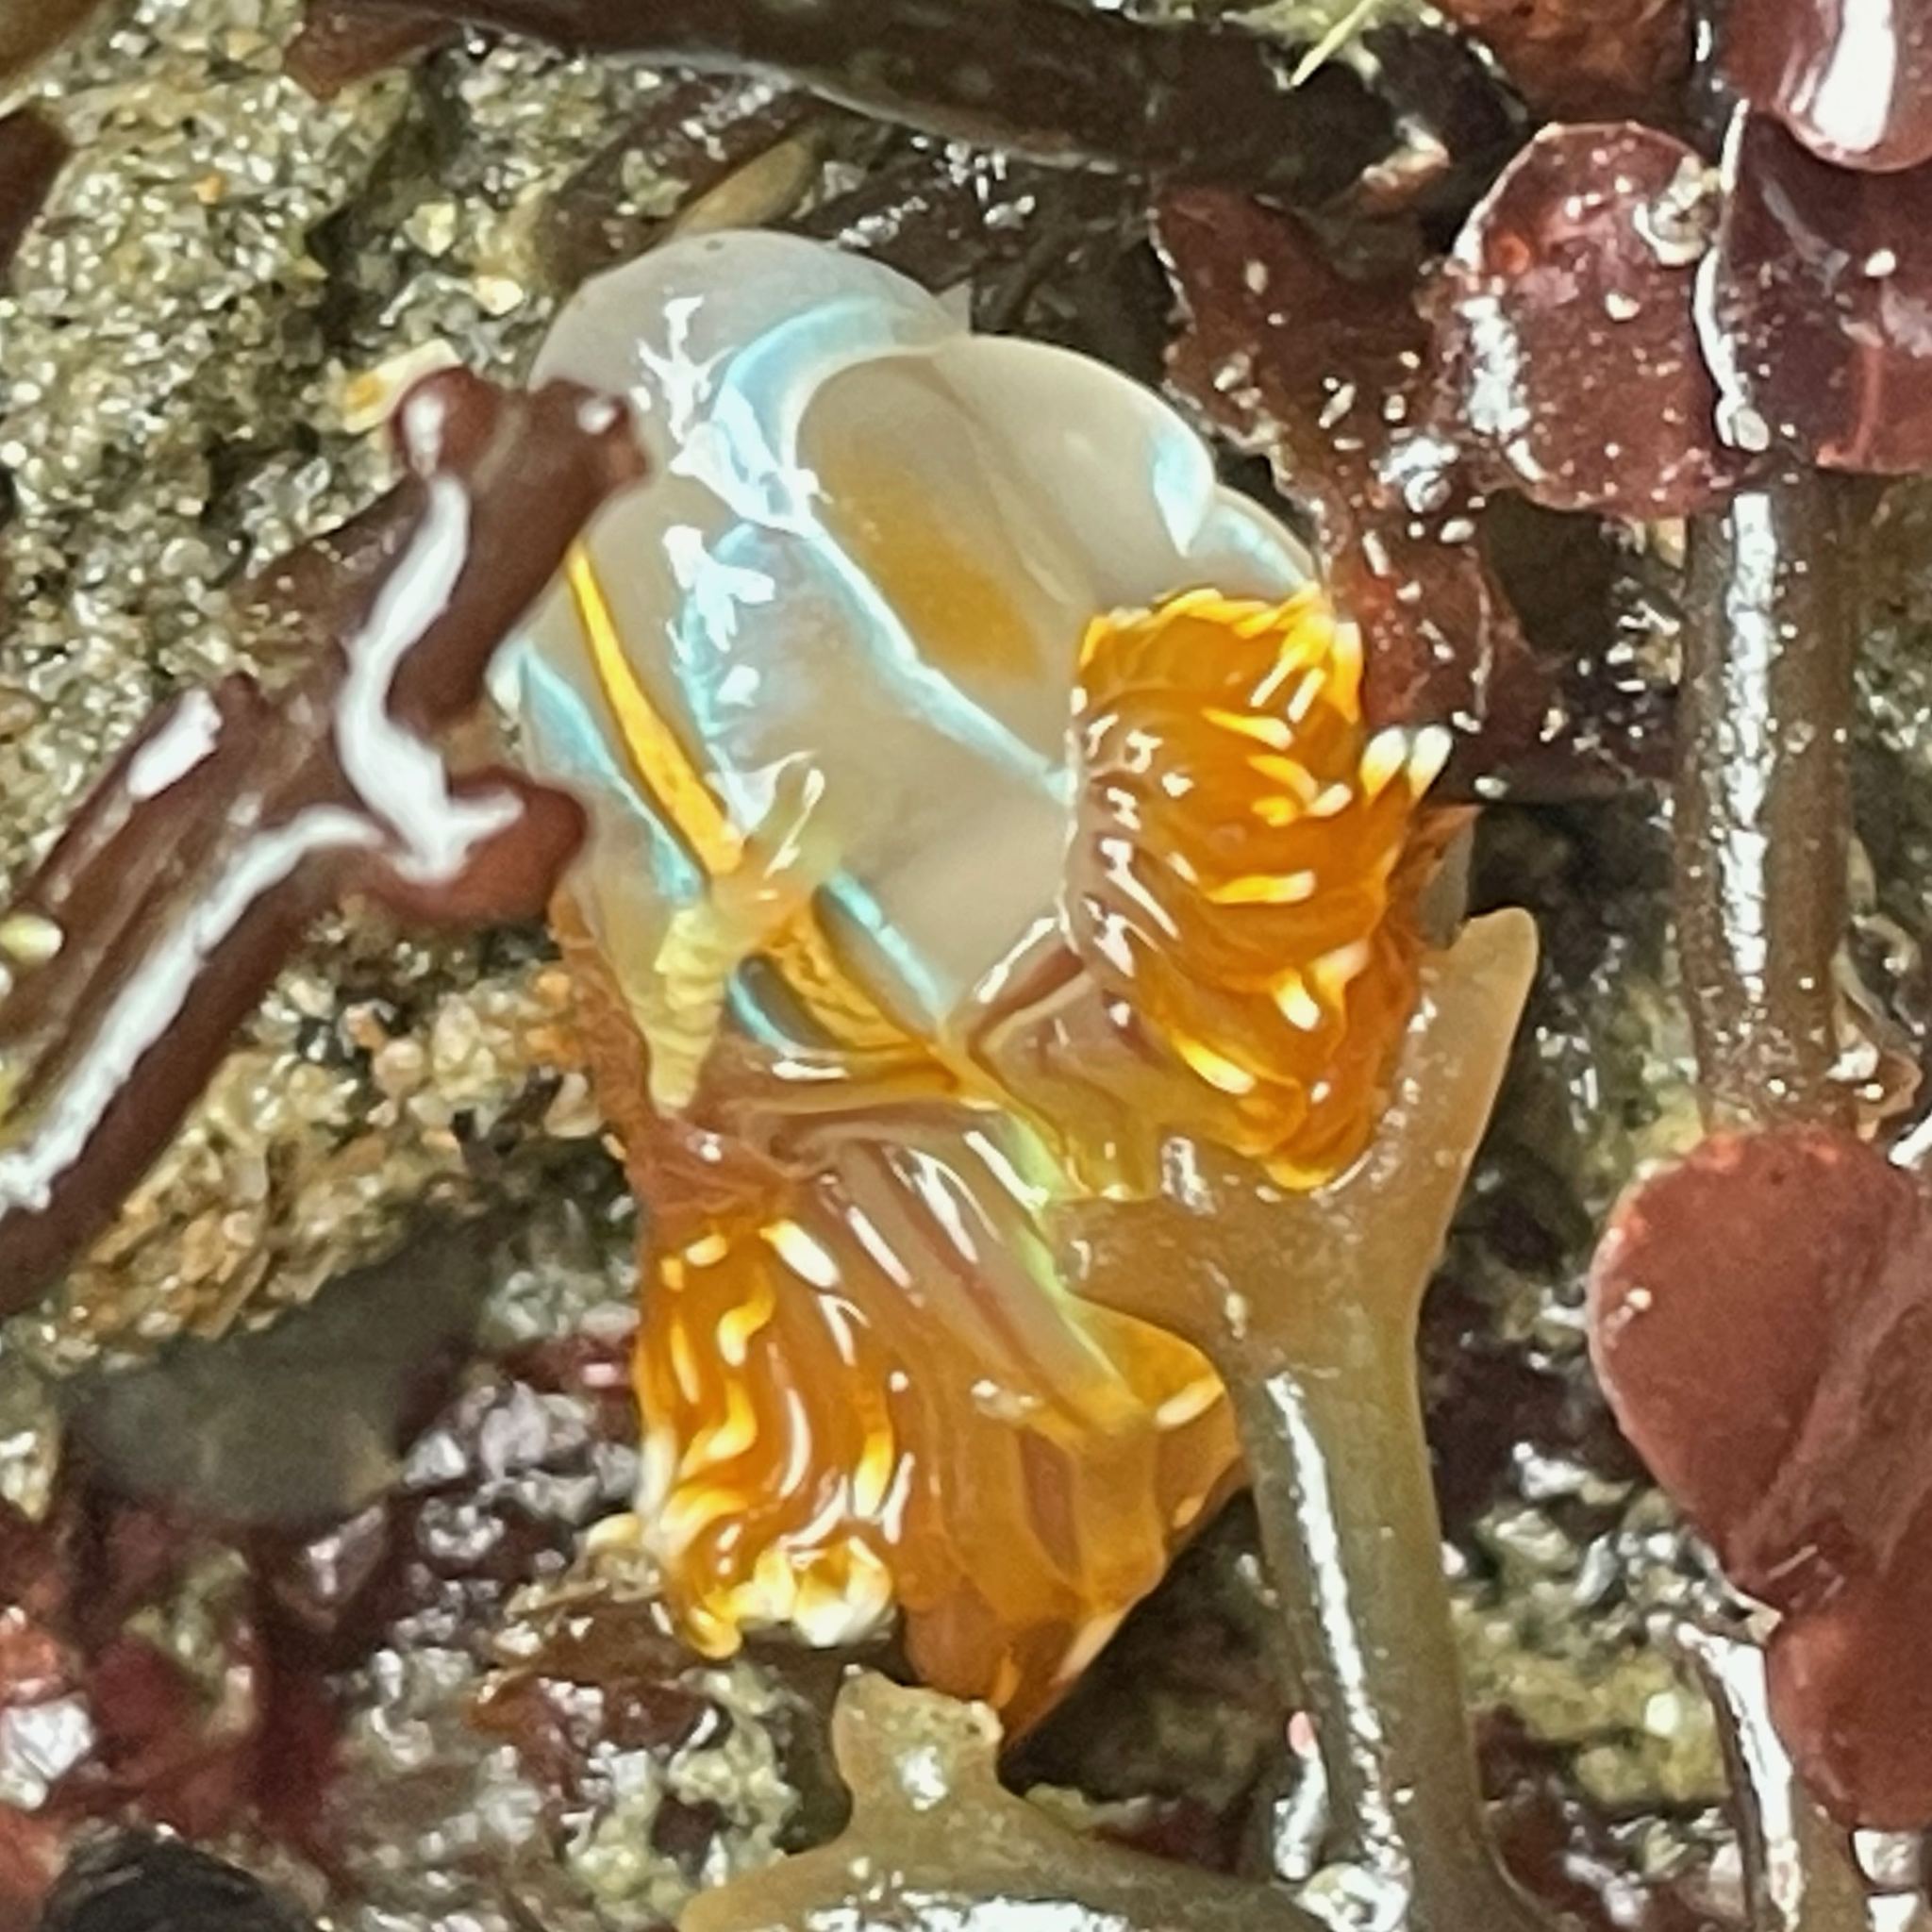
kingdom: Animalia
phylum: Mollusca
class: Gastropoda
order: Nudibranchia
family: Myrrhinidae
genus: Hermissenda
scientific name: Hermissenda opalescens
